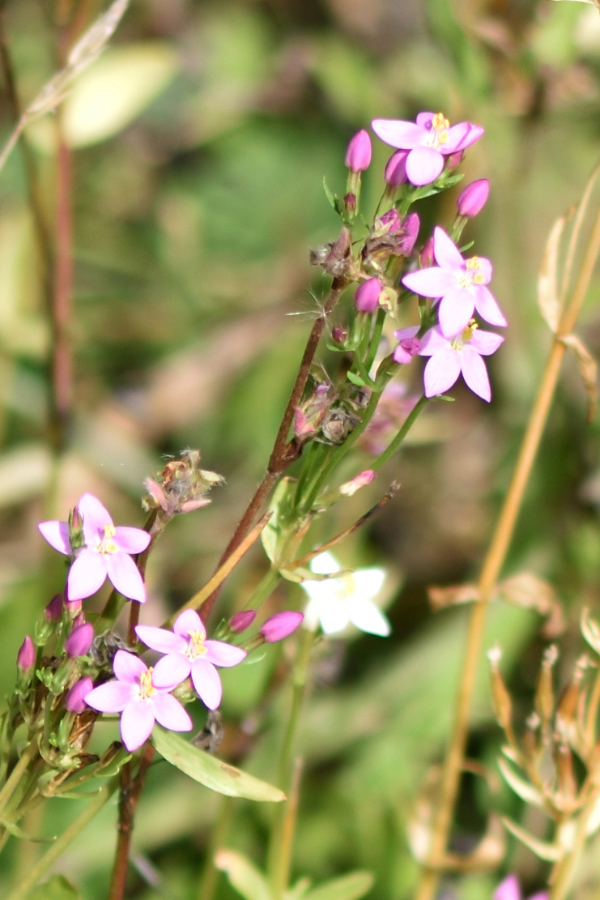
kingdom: Plantae
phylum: Tracheophyta
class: Magnoliopsida
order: Gentianales
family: Gentianaceae
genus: Centaurium
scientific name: Centaurium erythraea
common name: Common centaury
